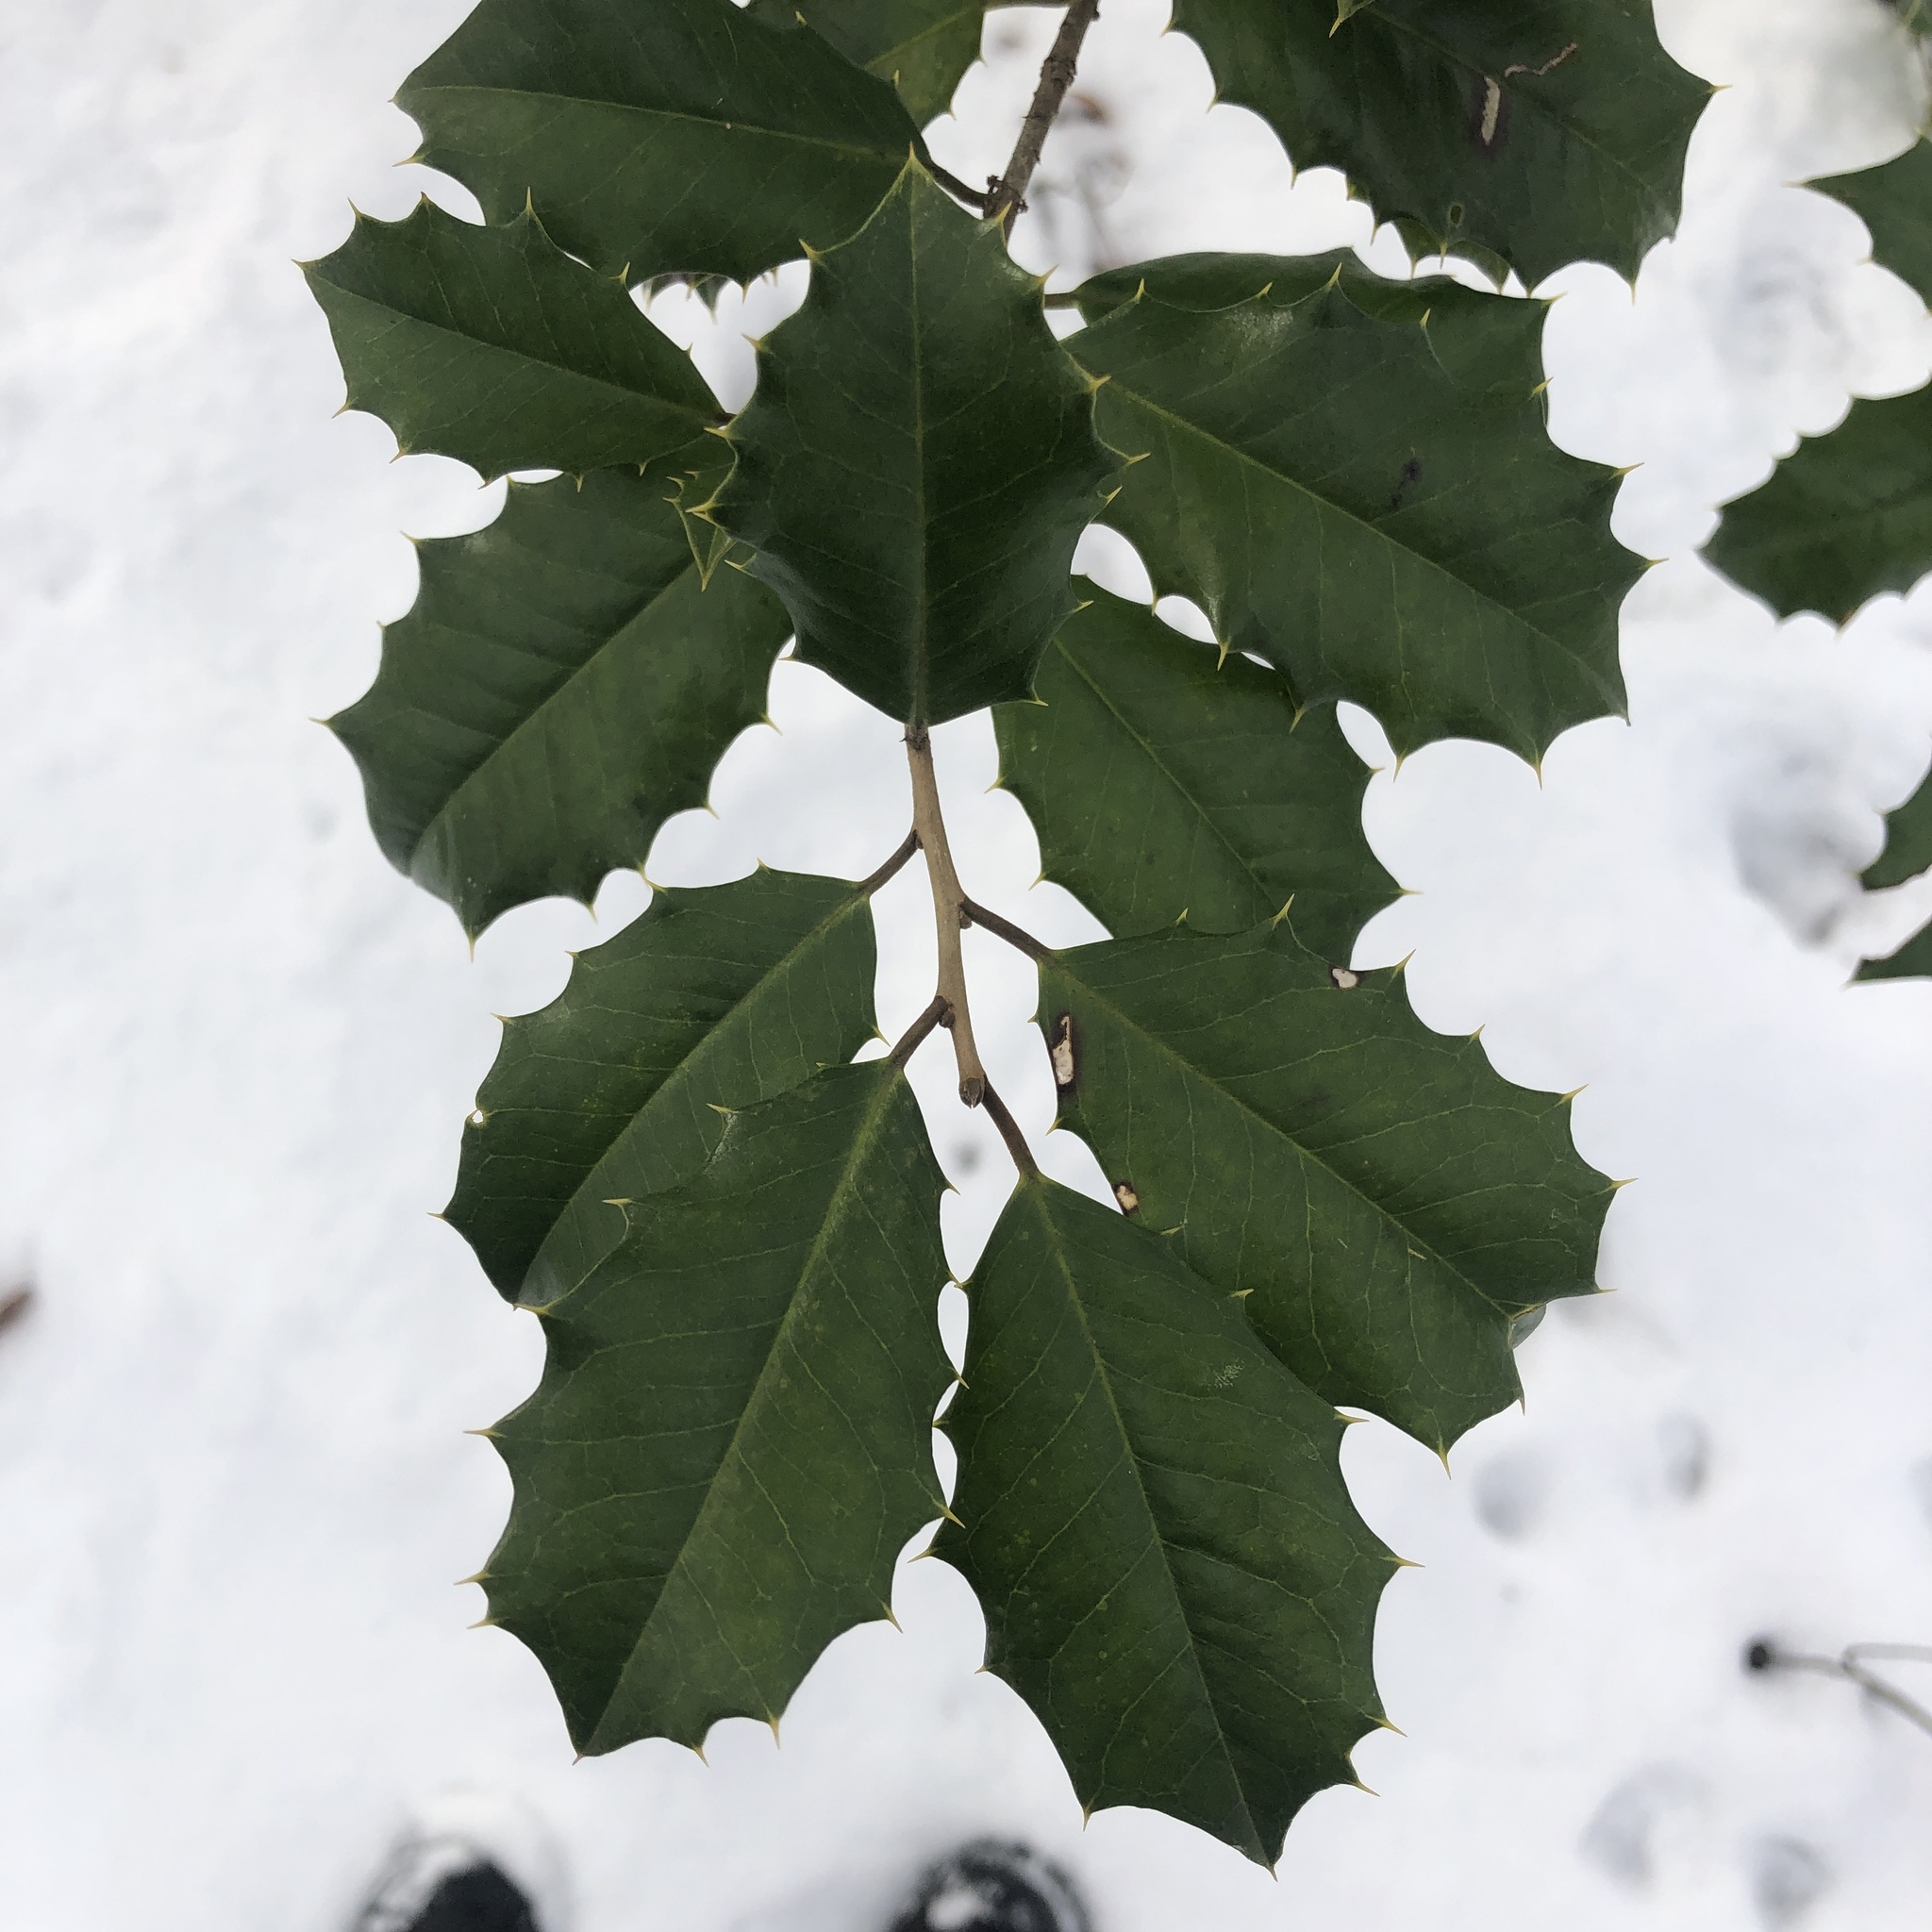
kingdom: Plantae
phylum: Tracheophyta
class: Magnoliopsida
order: Aquifoliales
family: Aquifoliaceae
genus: Ilex
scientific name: Ilex opaca
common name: American holly
